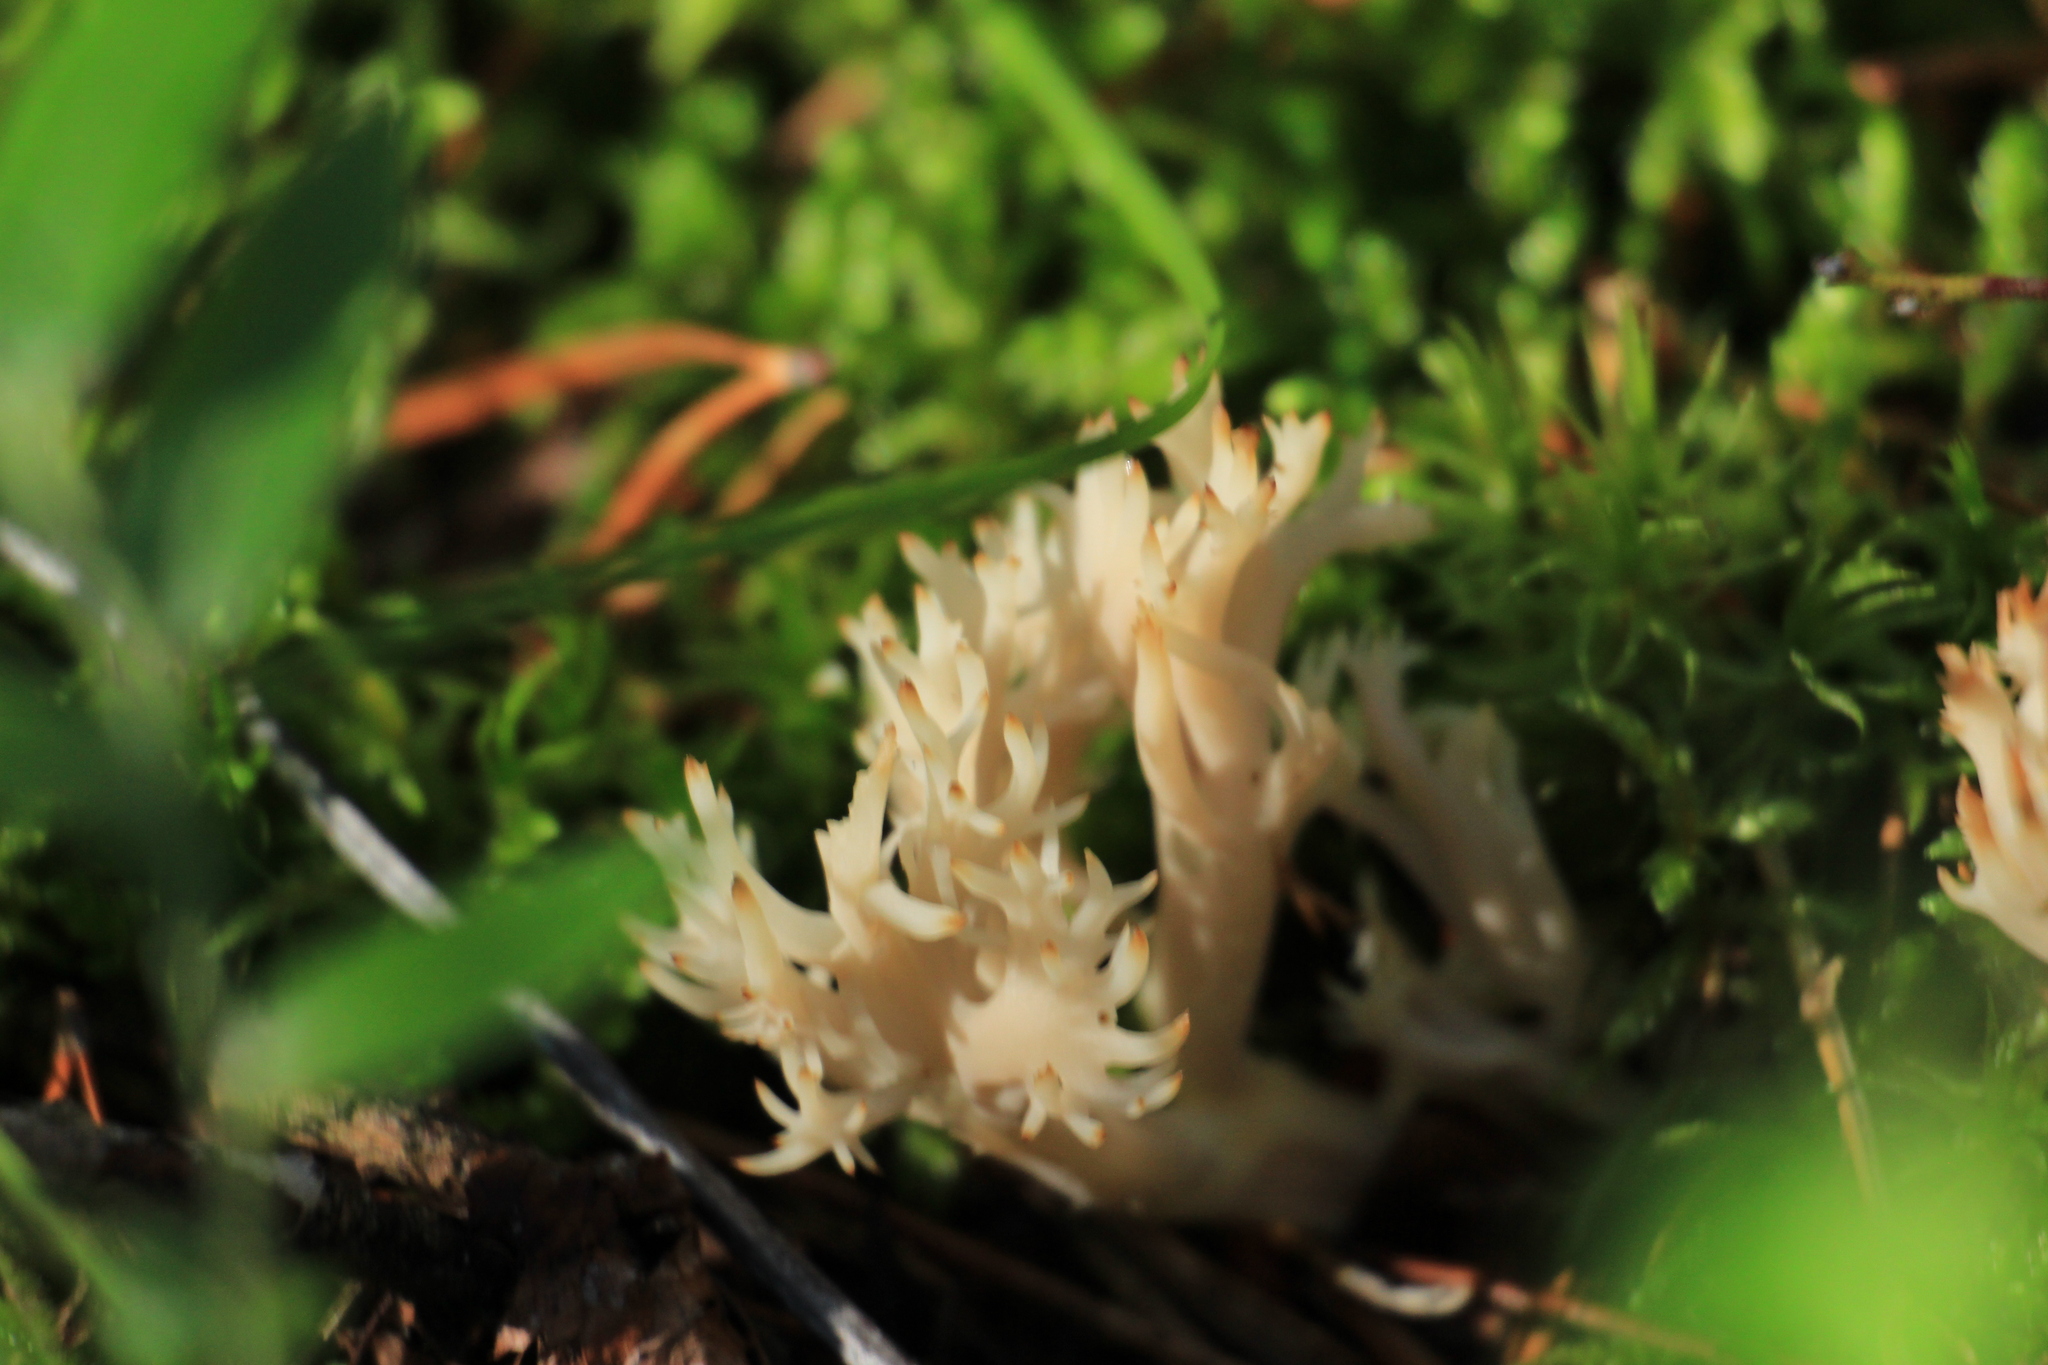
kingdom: Fungi
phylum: Basidiomycota
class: Agaricomycetes
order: Cantharellales
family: Hydnaceae
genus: Clavulina
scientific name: Clavulina coralloides
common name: Crested coral
